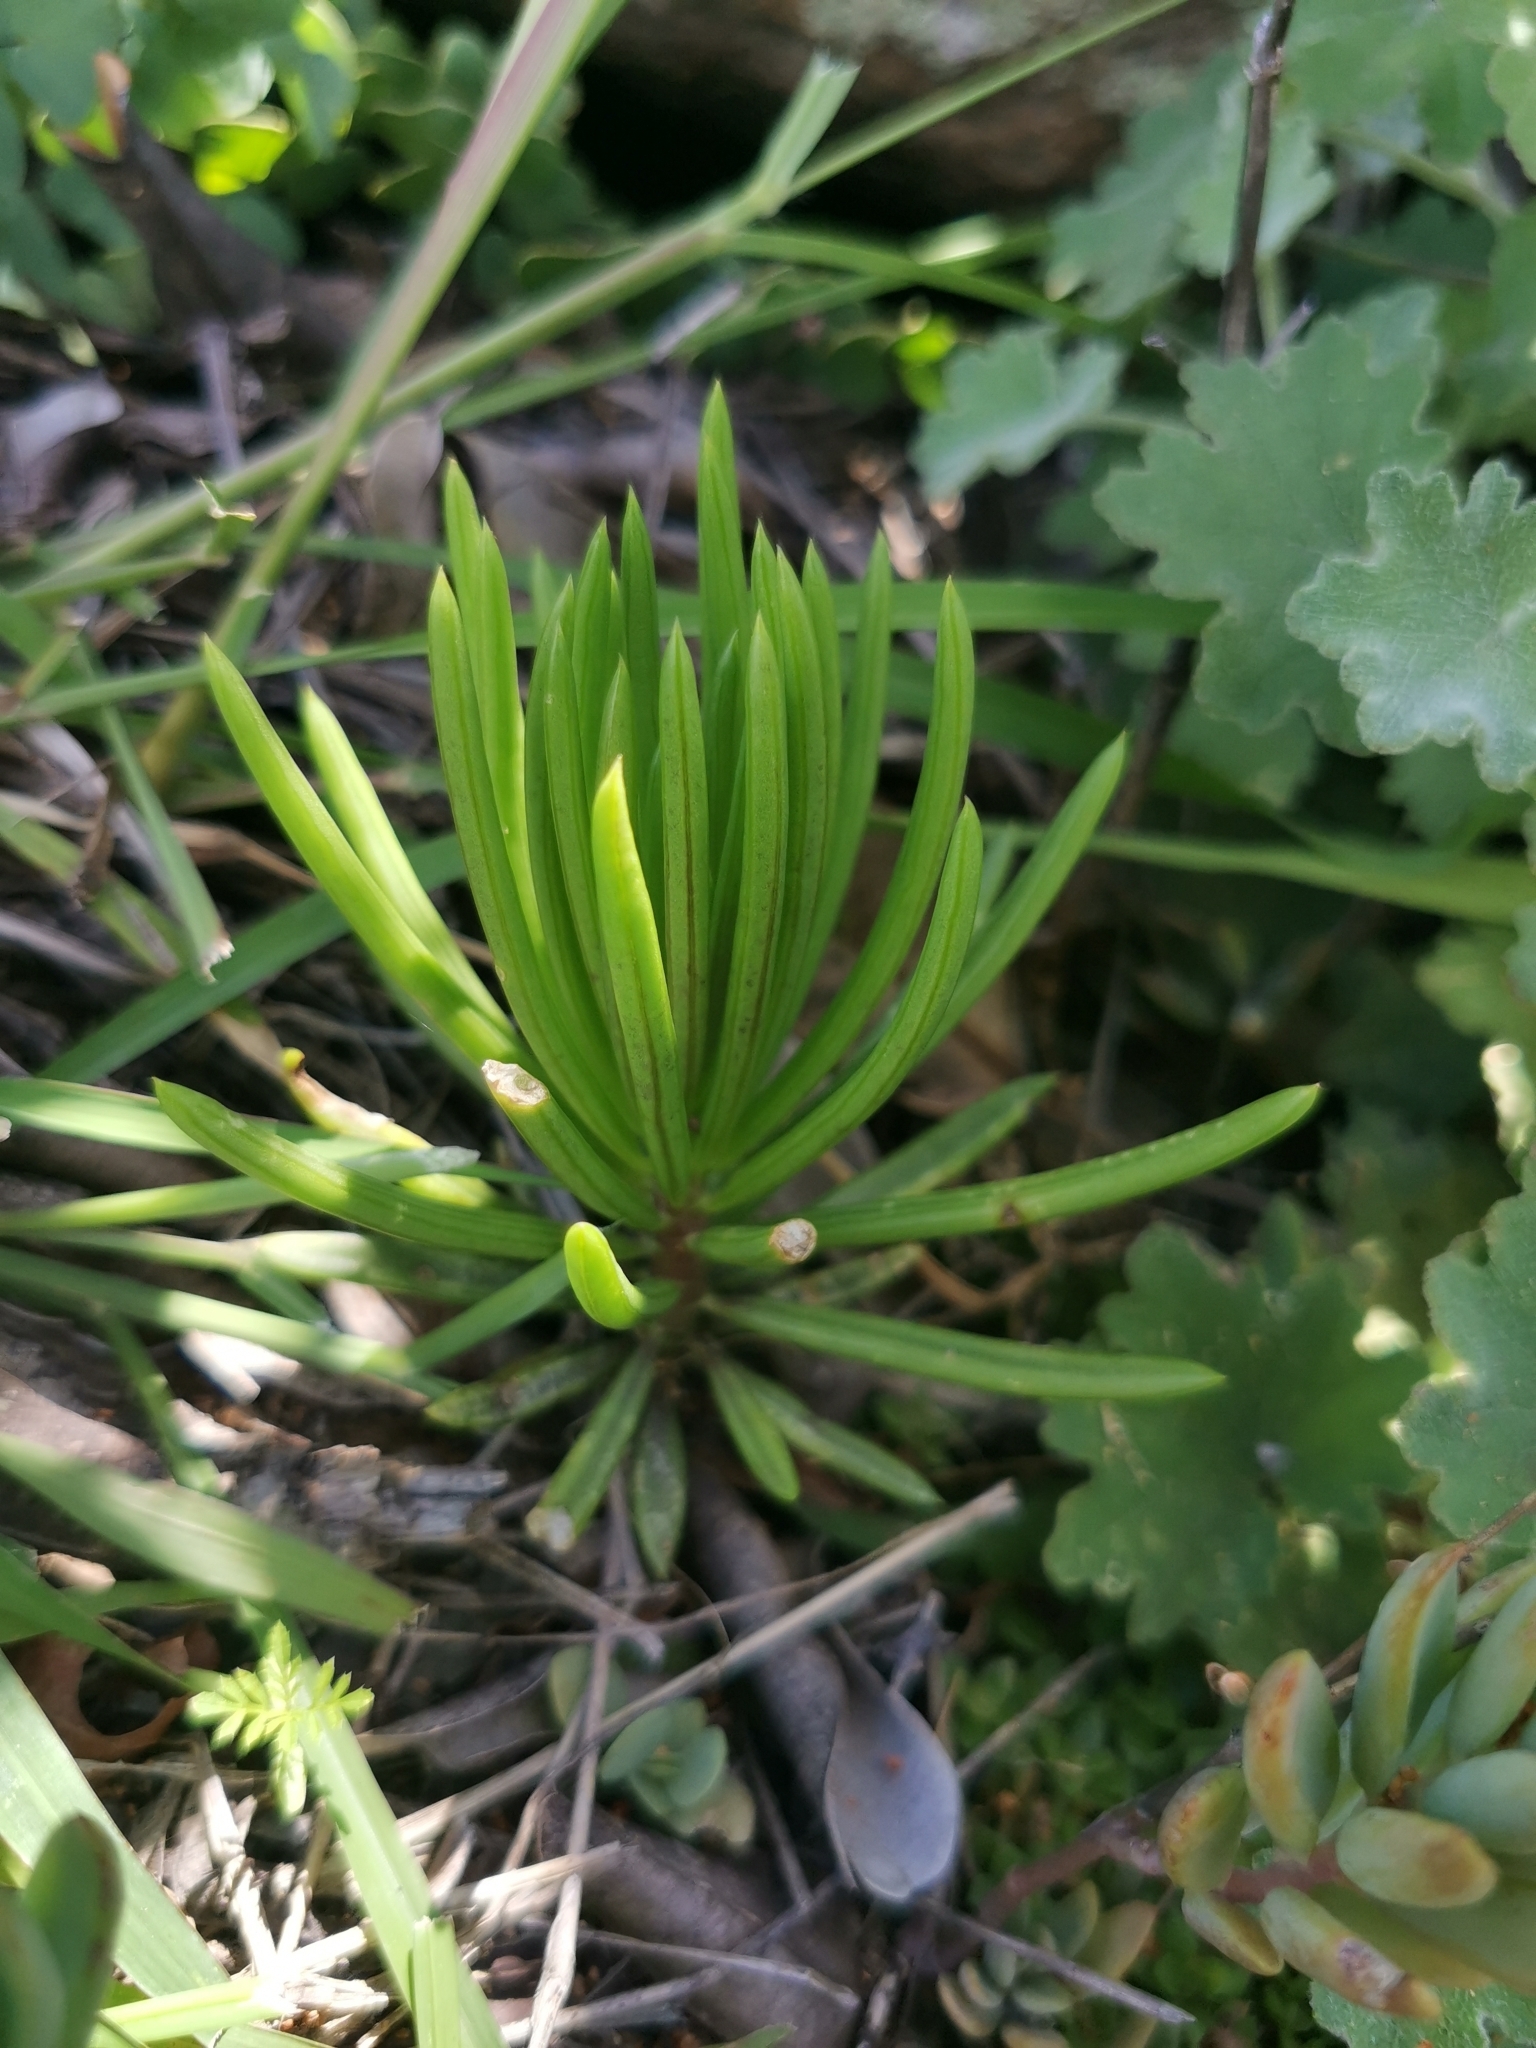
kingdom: Plantae
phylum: Tracheophyta
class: Magnoliopsida
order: Asterales
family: Asteraceae
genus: Kleinia
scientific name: Kleinia barbertonica
